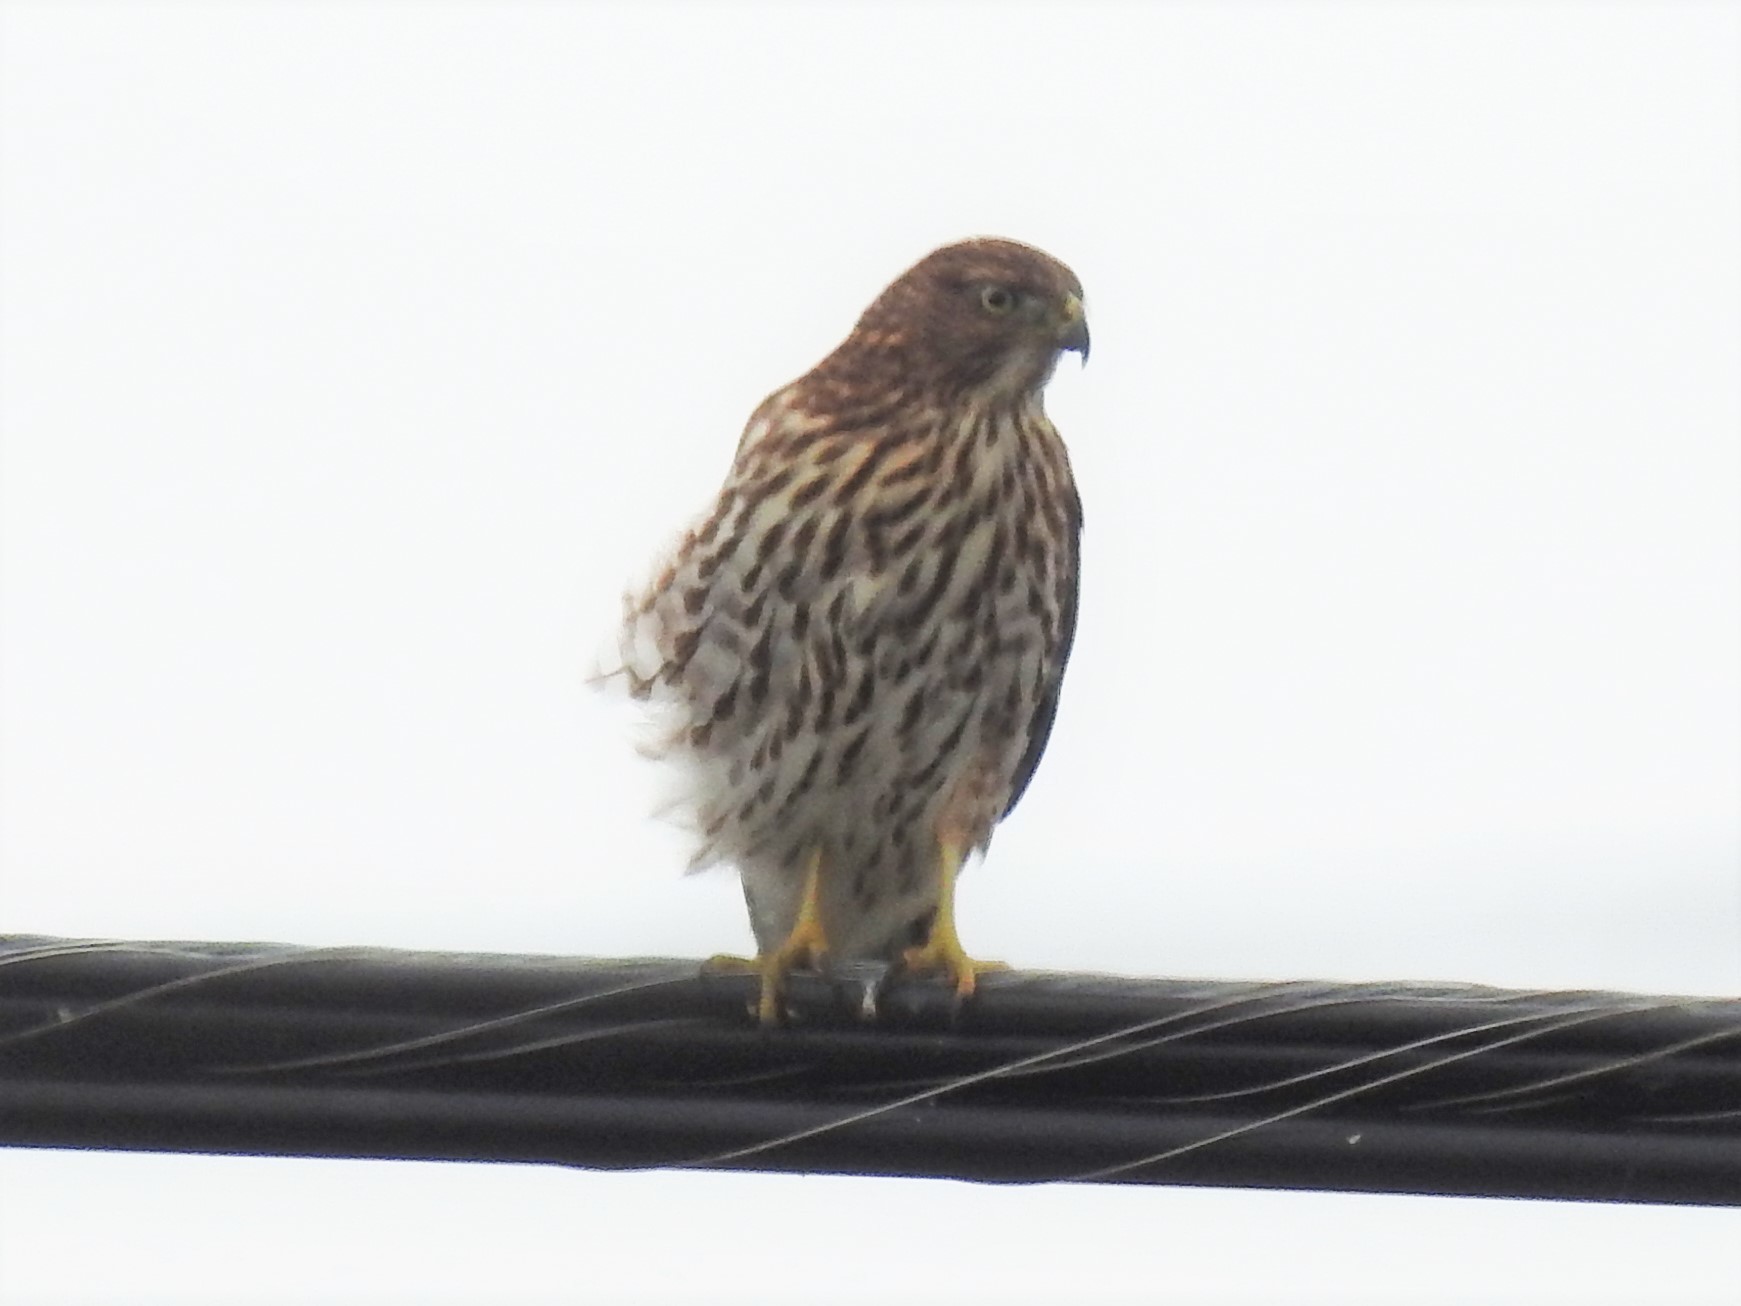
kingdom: Animalia
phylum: Chordata
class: Aves
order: Accipitriformes
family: Accipitridae
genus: Accipiter
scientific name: Accipiter cooperii
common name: Cooper's hawk
